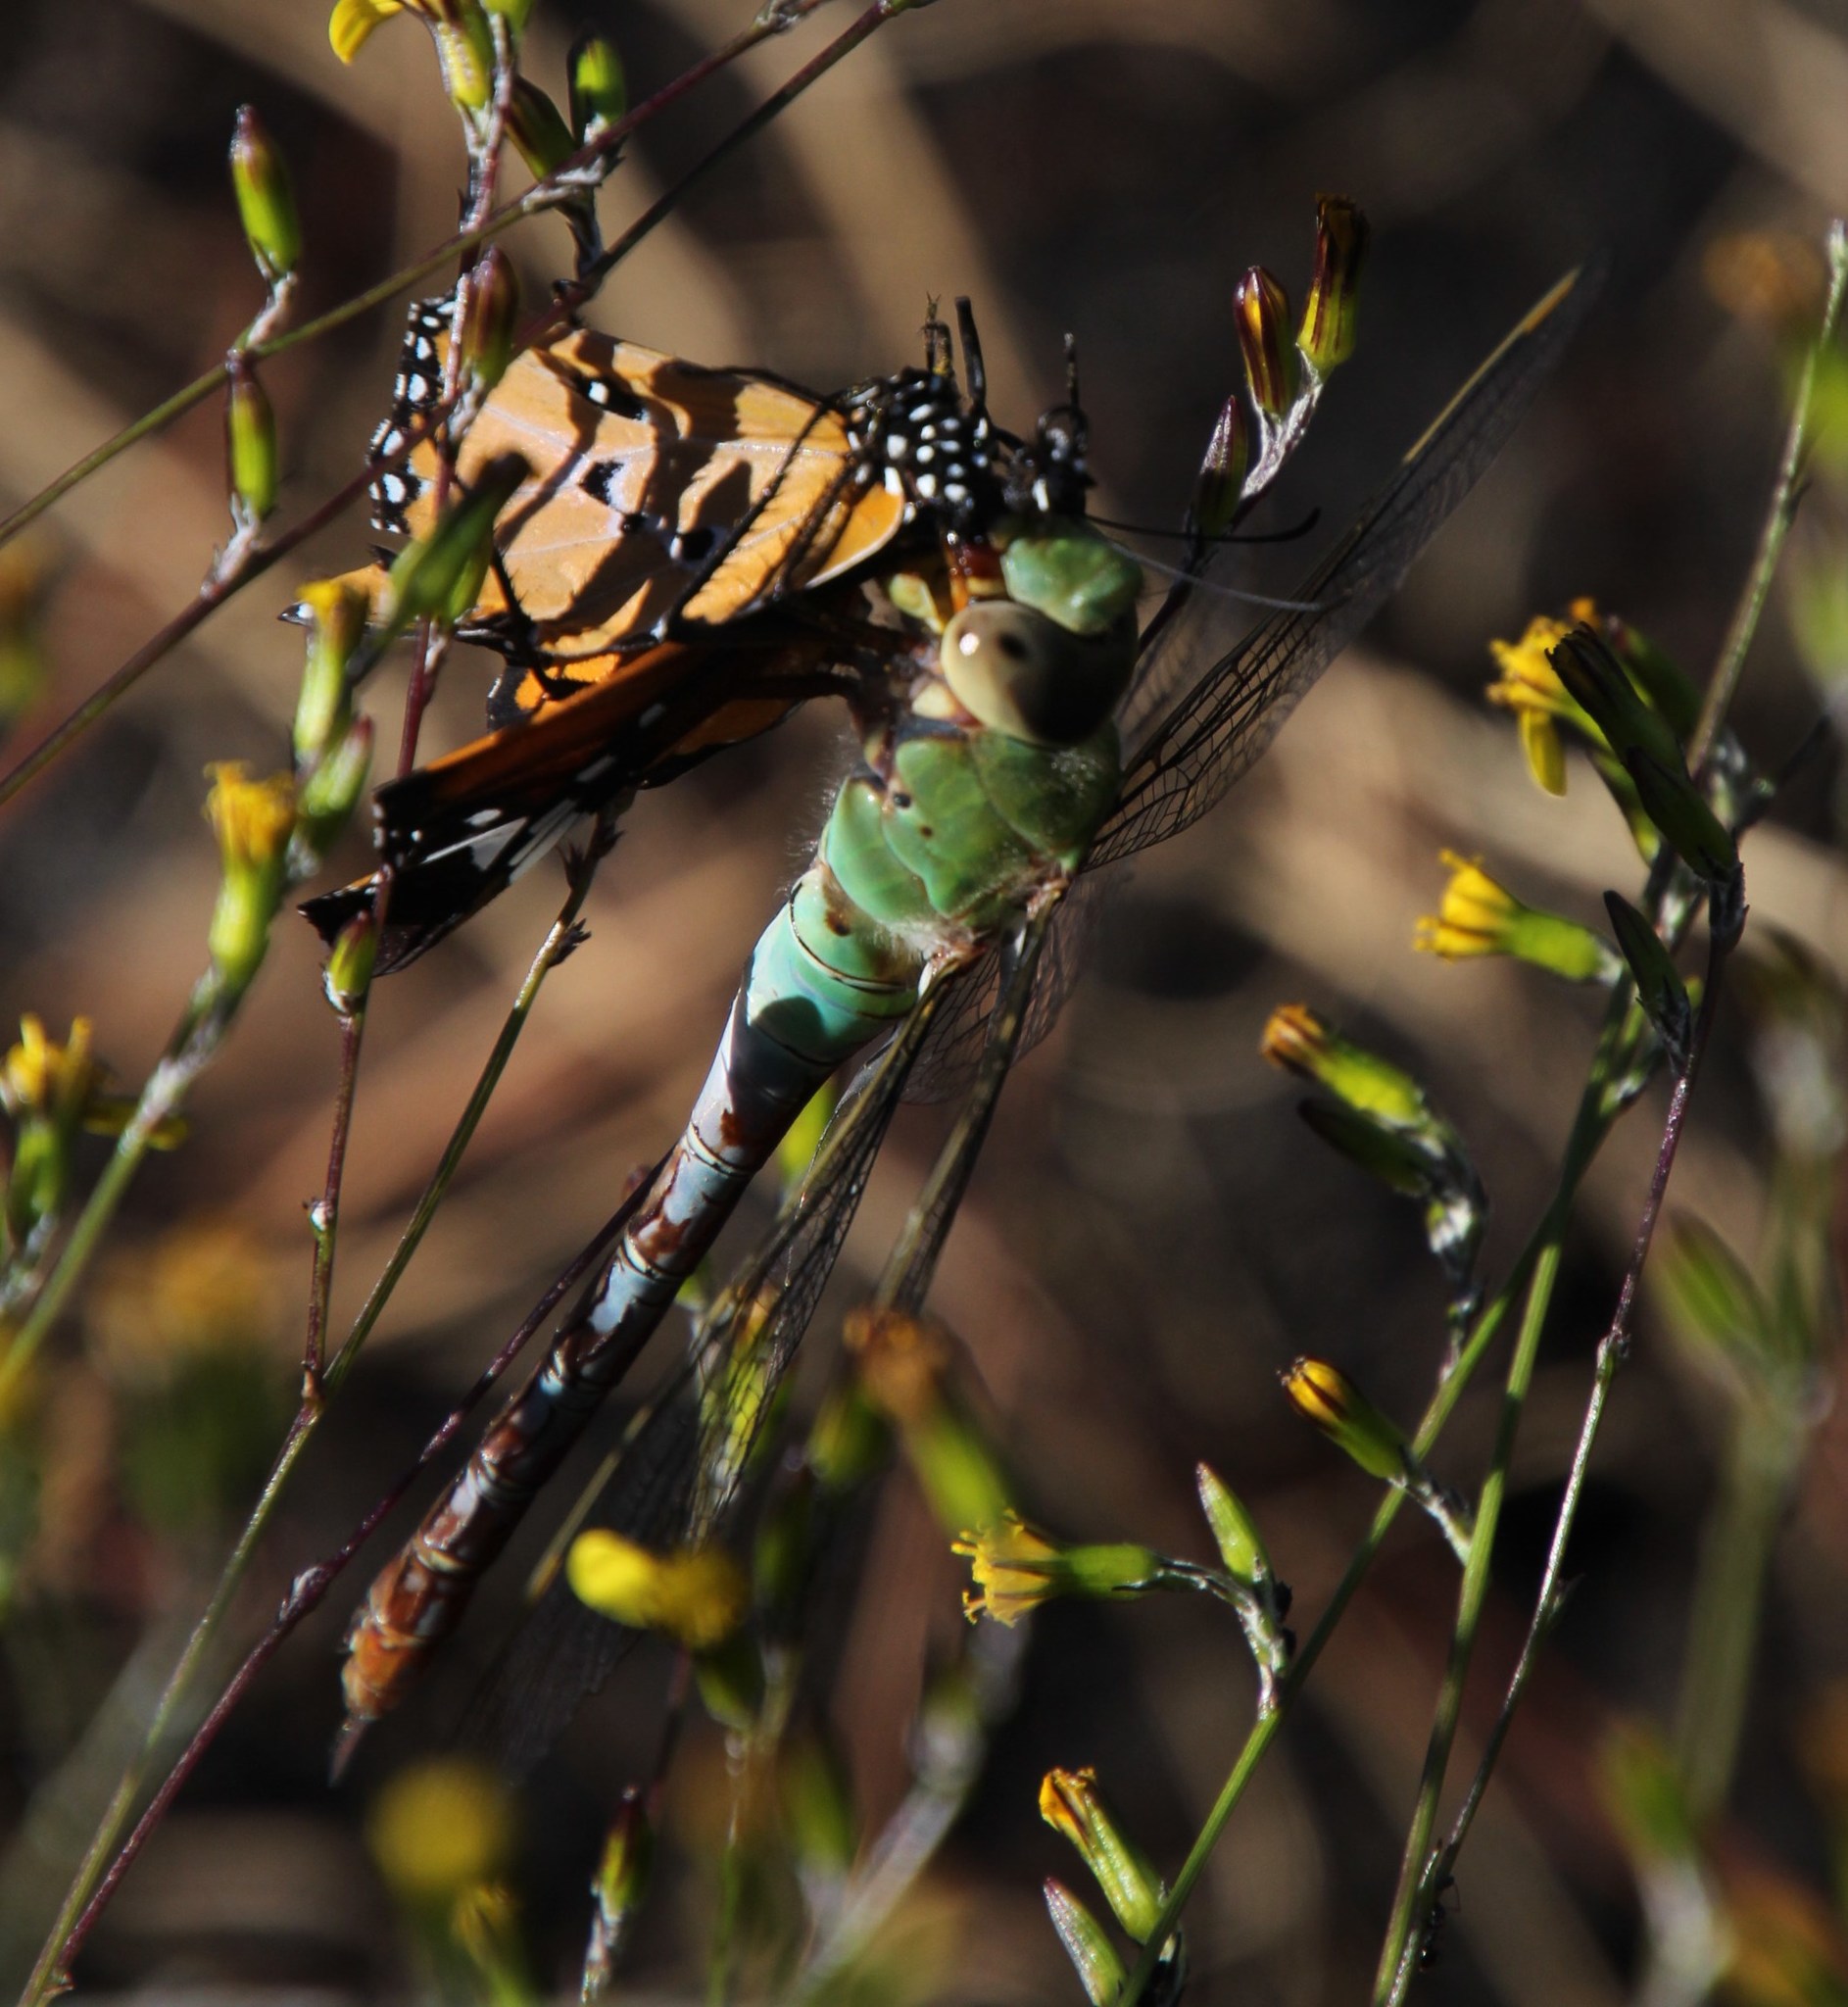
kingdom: Animalia
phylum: Arthropoda
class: Insecta
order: Odonata
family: Aeshnidae
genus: Anax
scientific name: Anax imperator
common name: Emperor dragonfly
